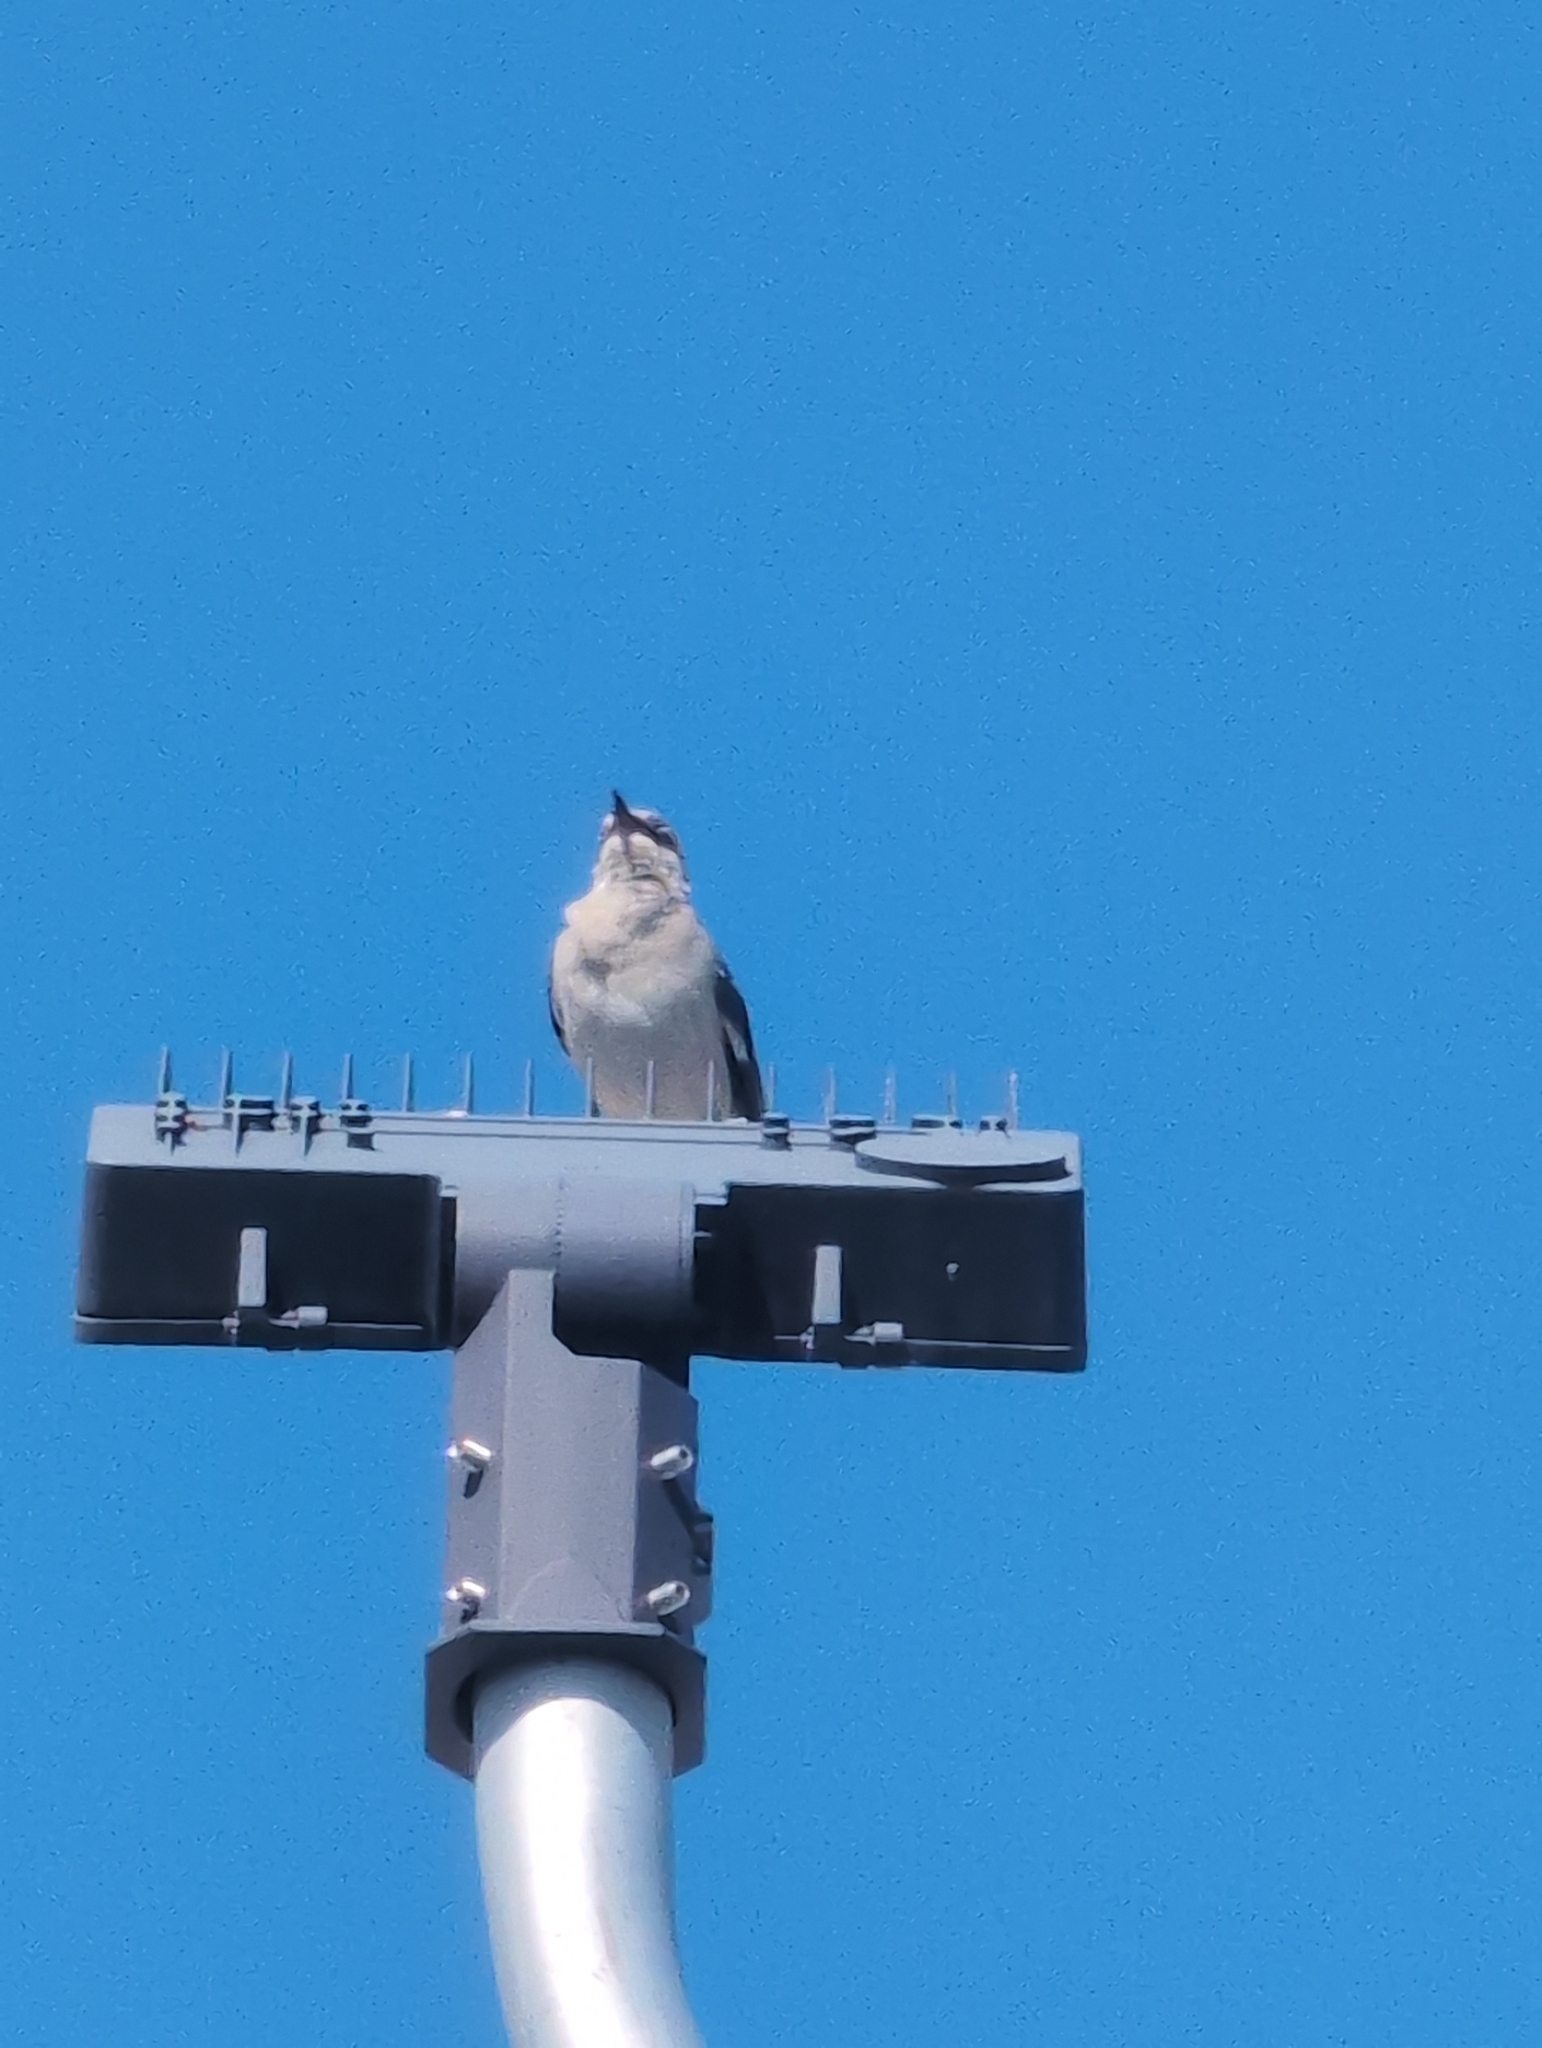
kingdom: Animalia
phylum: Chordata
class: Aves
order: Passeriformes
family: Mimidae
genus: Mimus
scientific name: Mimus polyglottos
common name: Northern mockingbird
